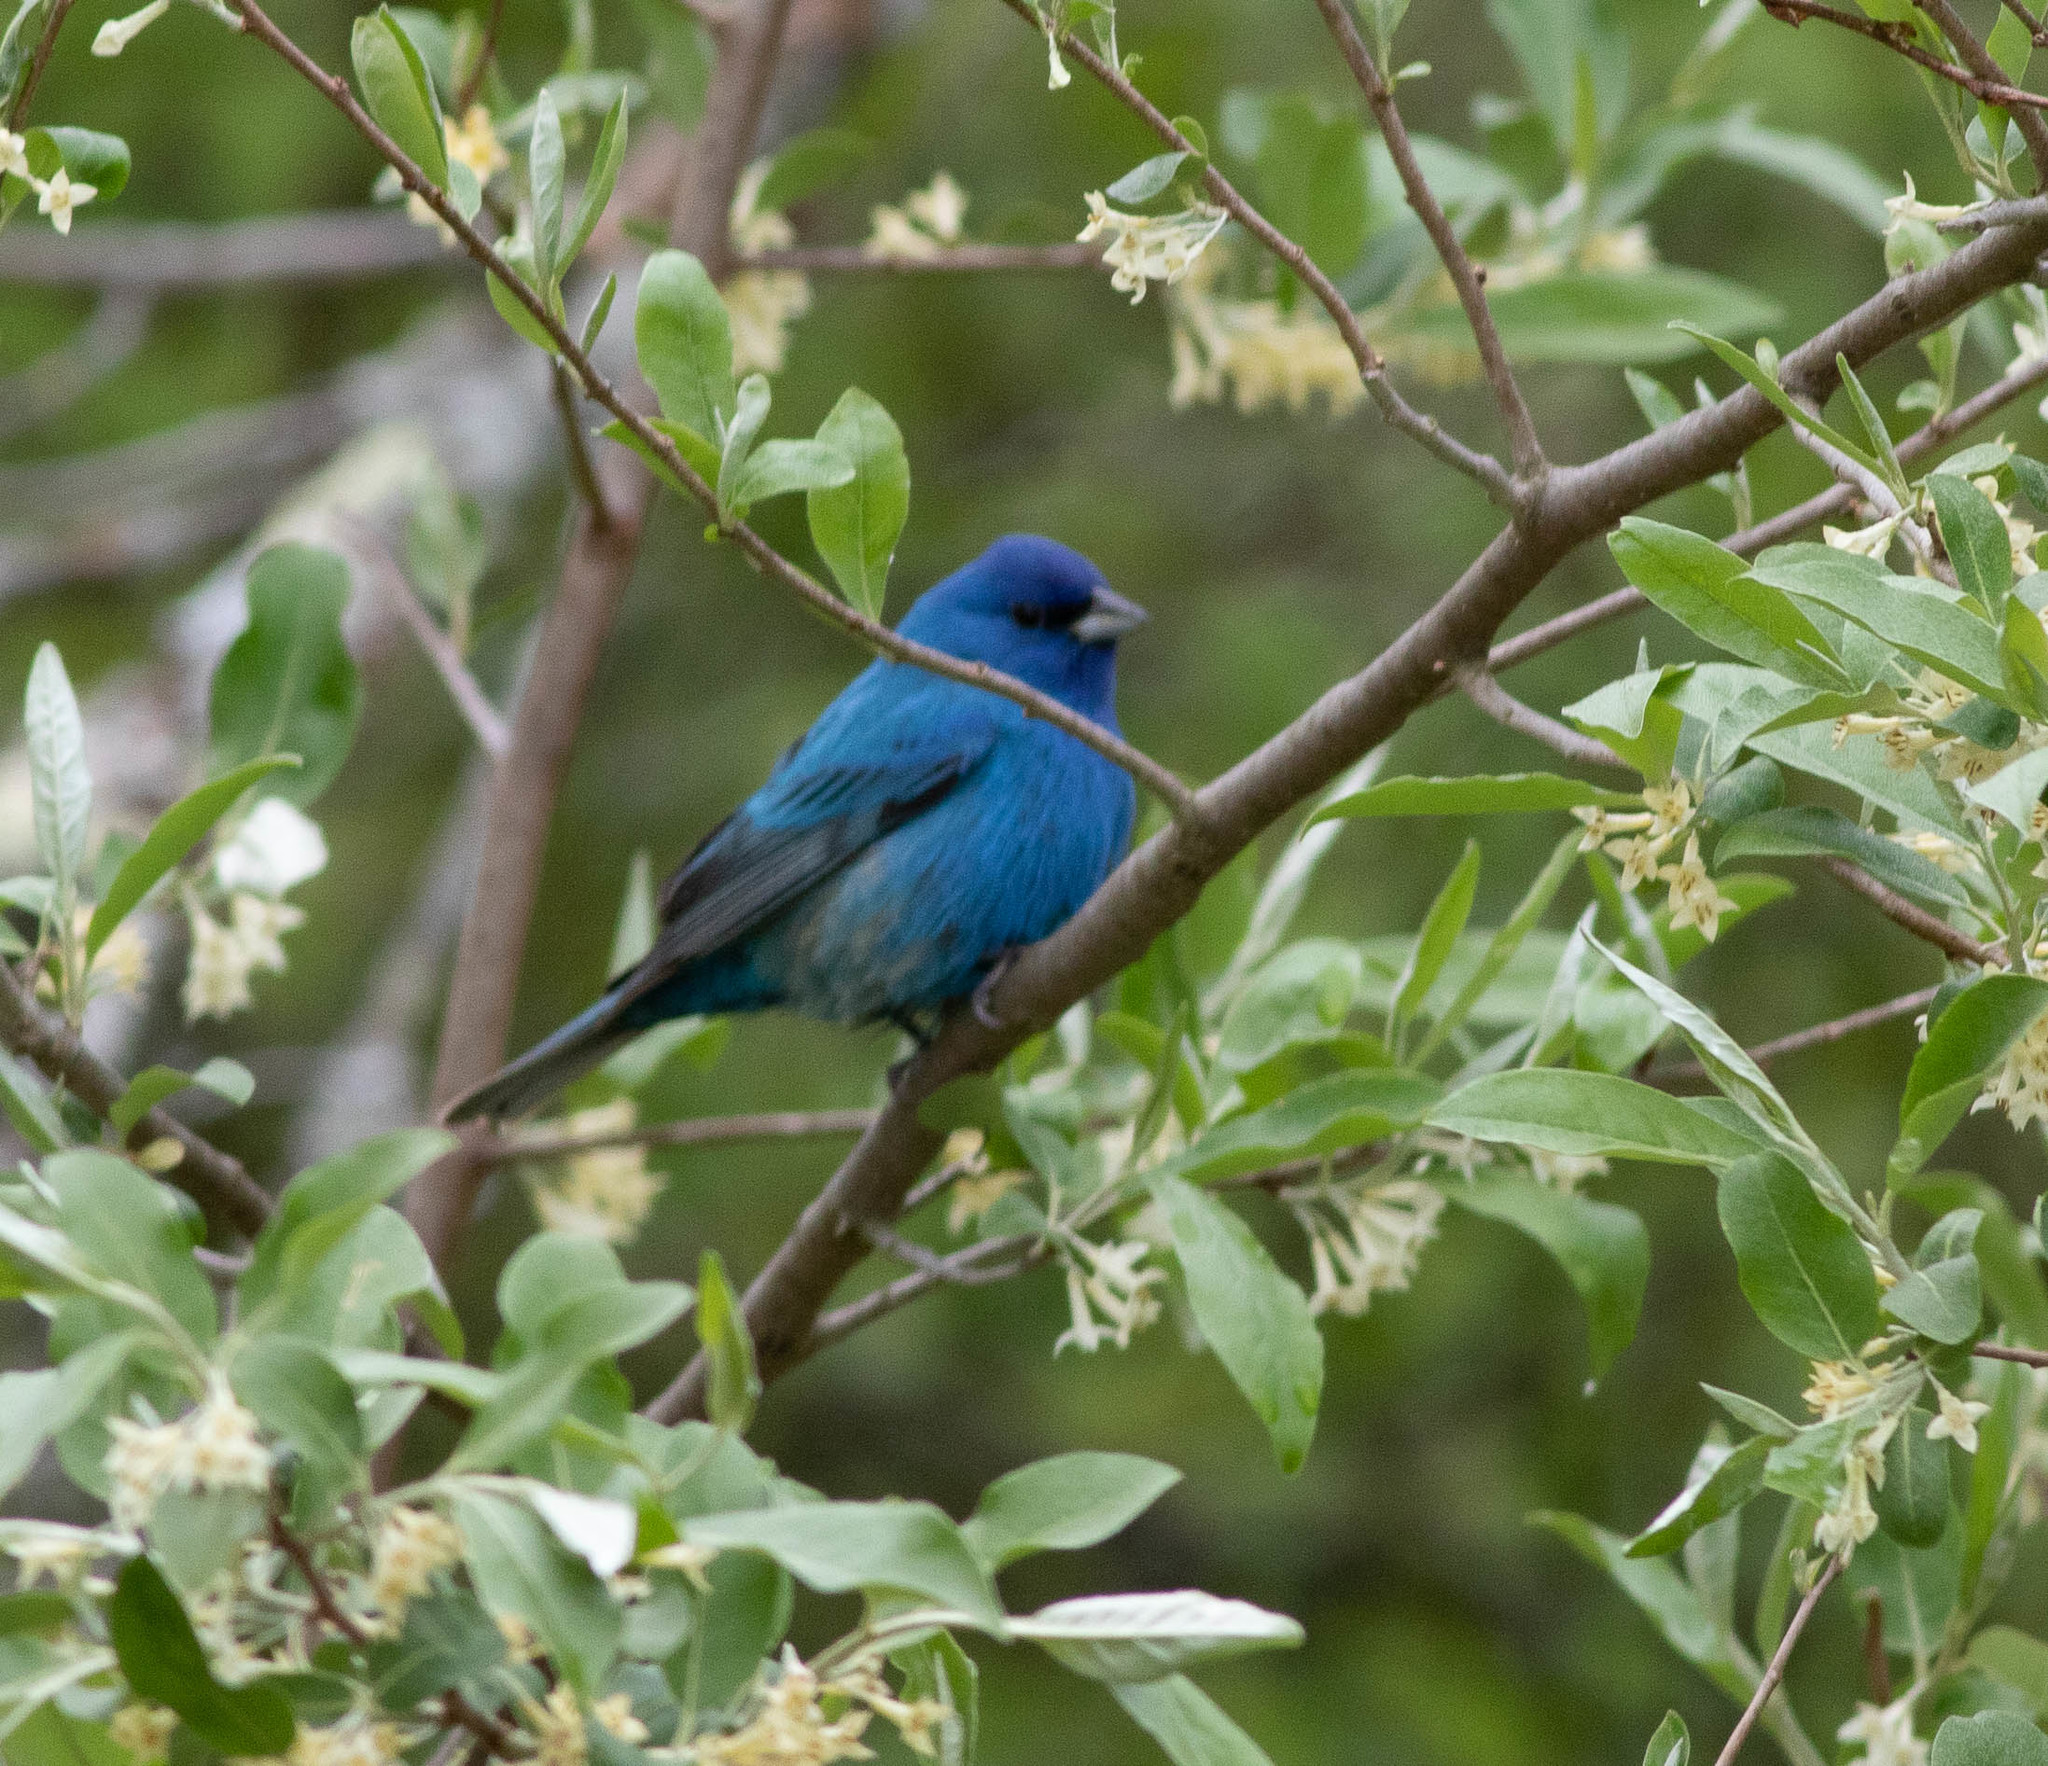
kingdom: Animalia
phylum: Chordata
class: Aves
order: Passeriformes
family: Cardinalidae
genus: Passerina
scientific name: Passerina cyanea
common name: Indigo bunting
